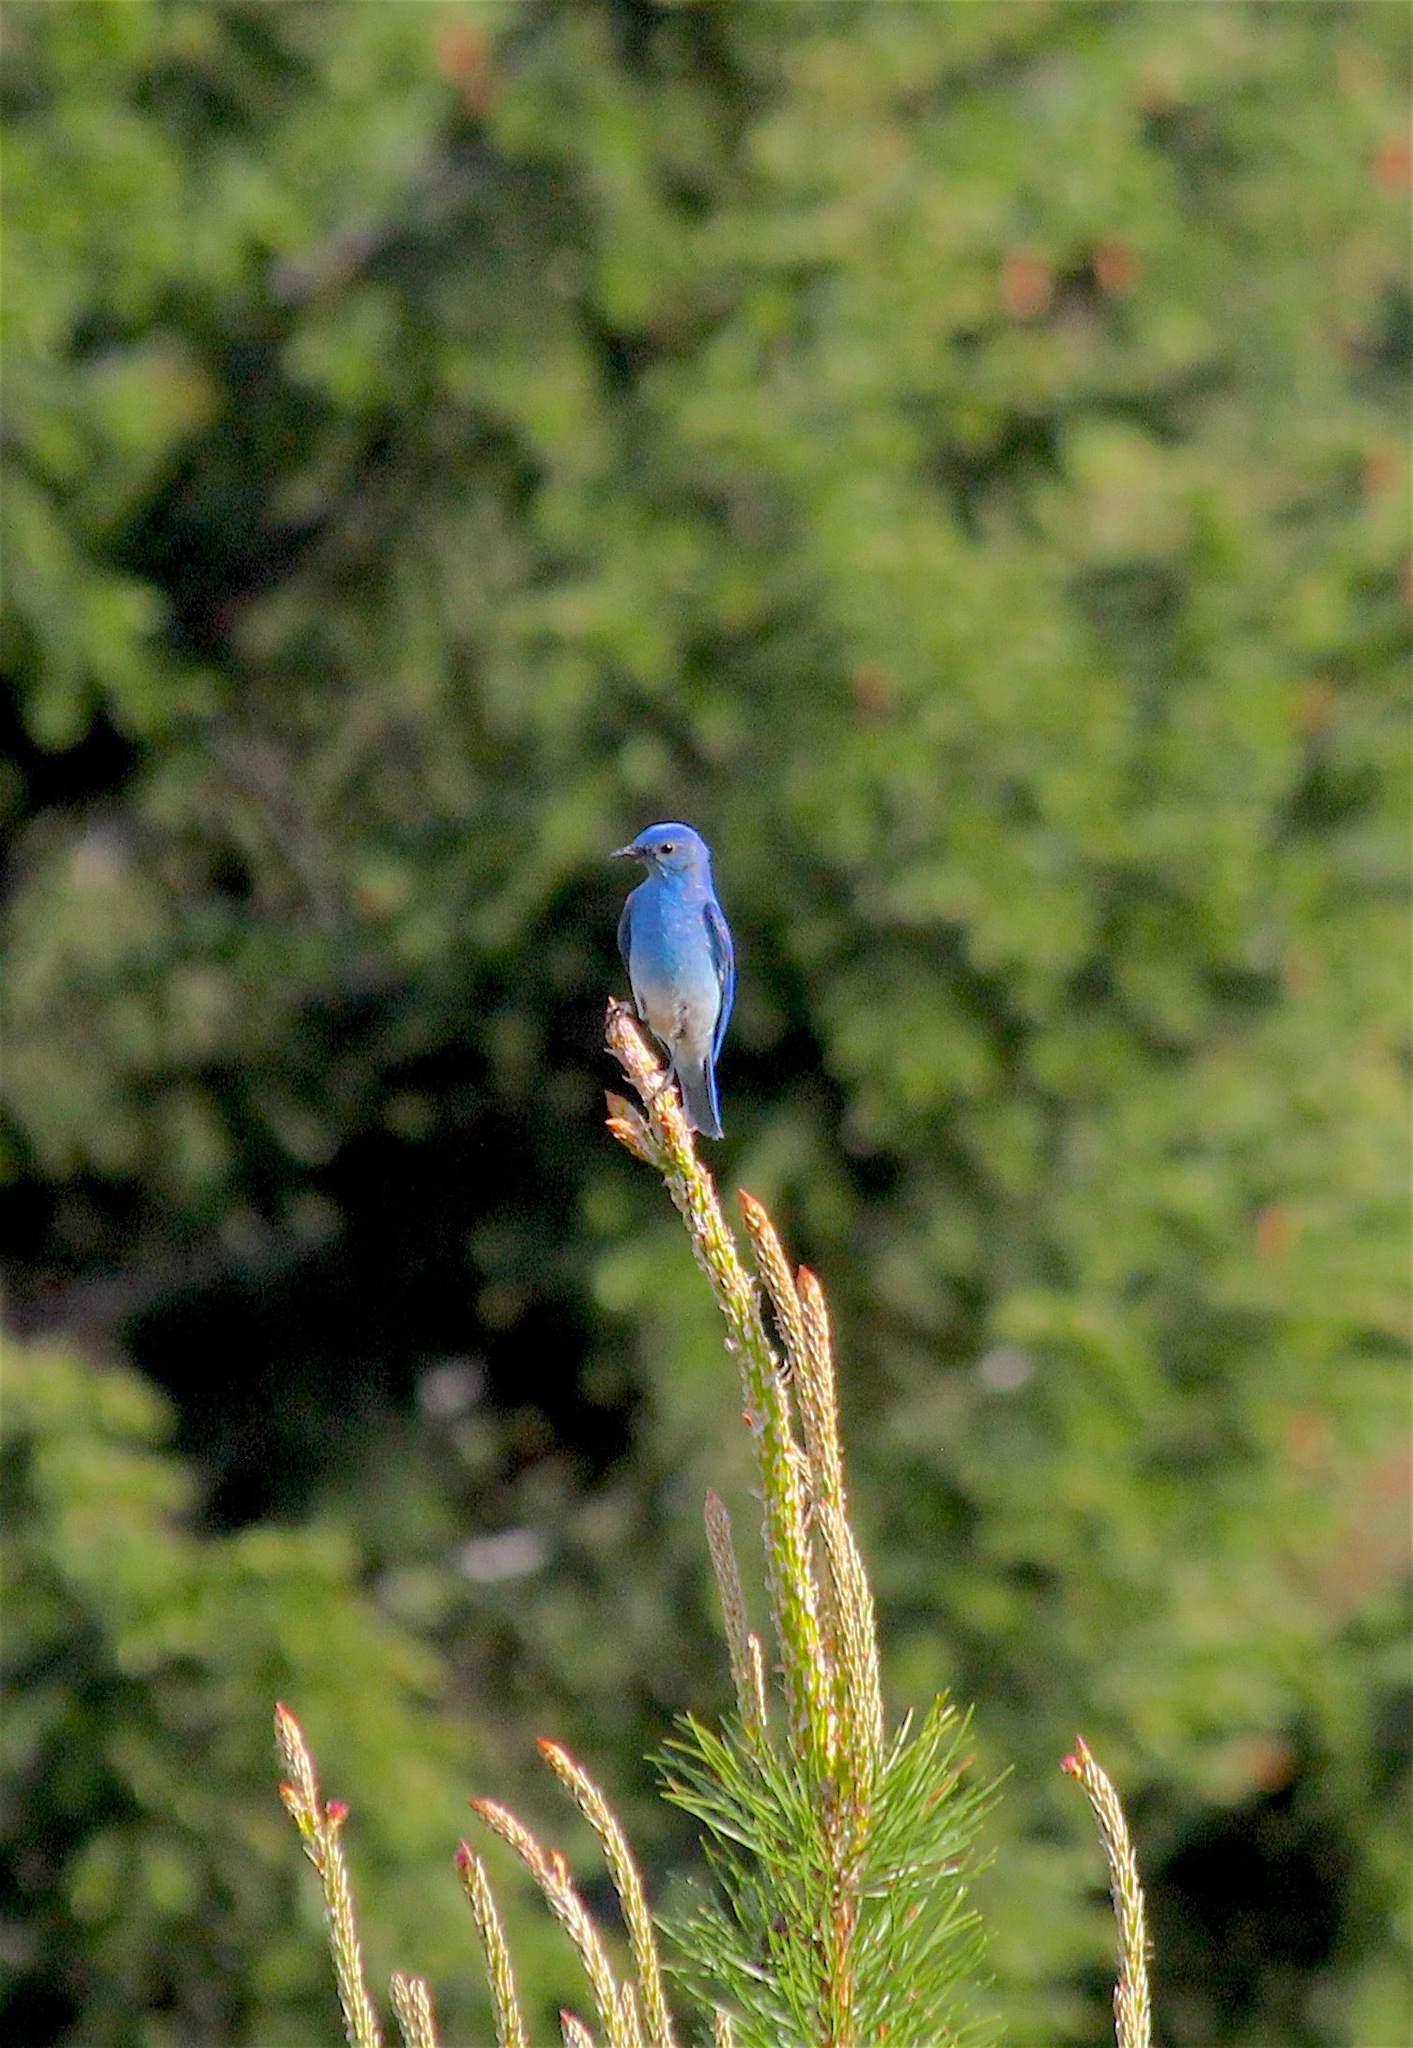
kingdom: Animalia
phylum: Chordata
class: Aves
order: Passeriformes
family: Turdidae
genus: Sialia
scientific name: Sialia currucoides
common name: Mountain bluebird
